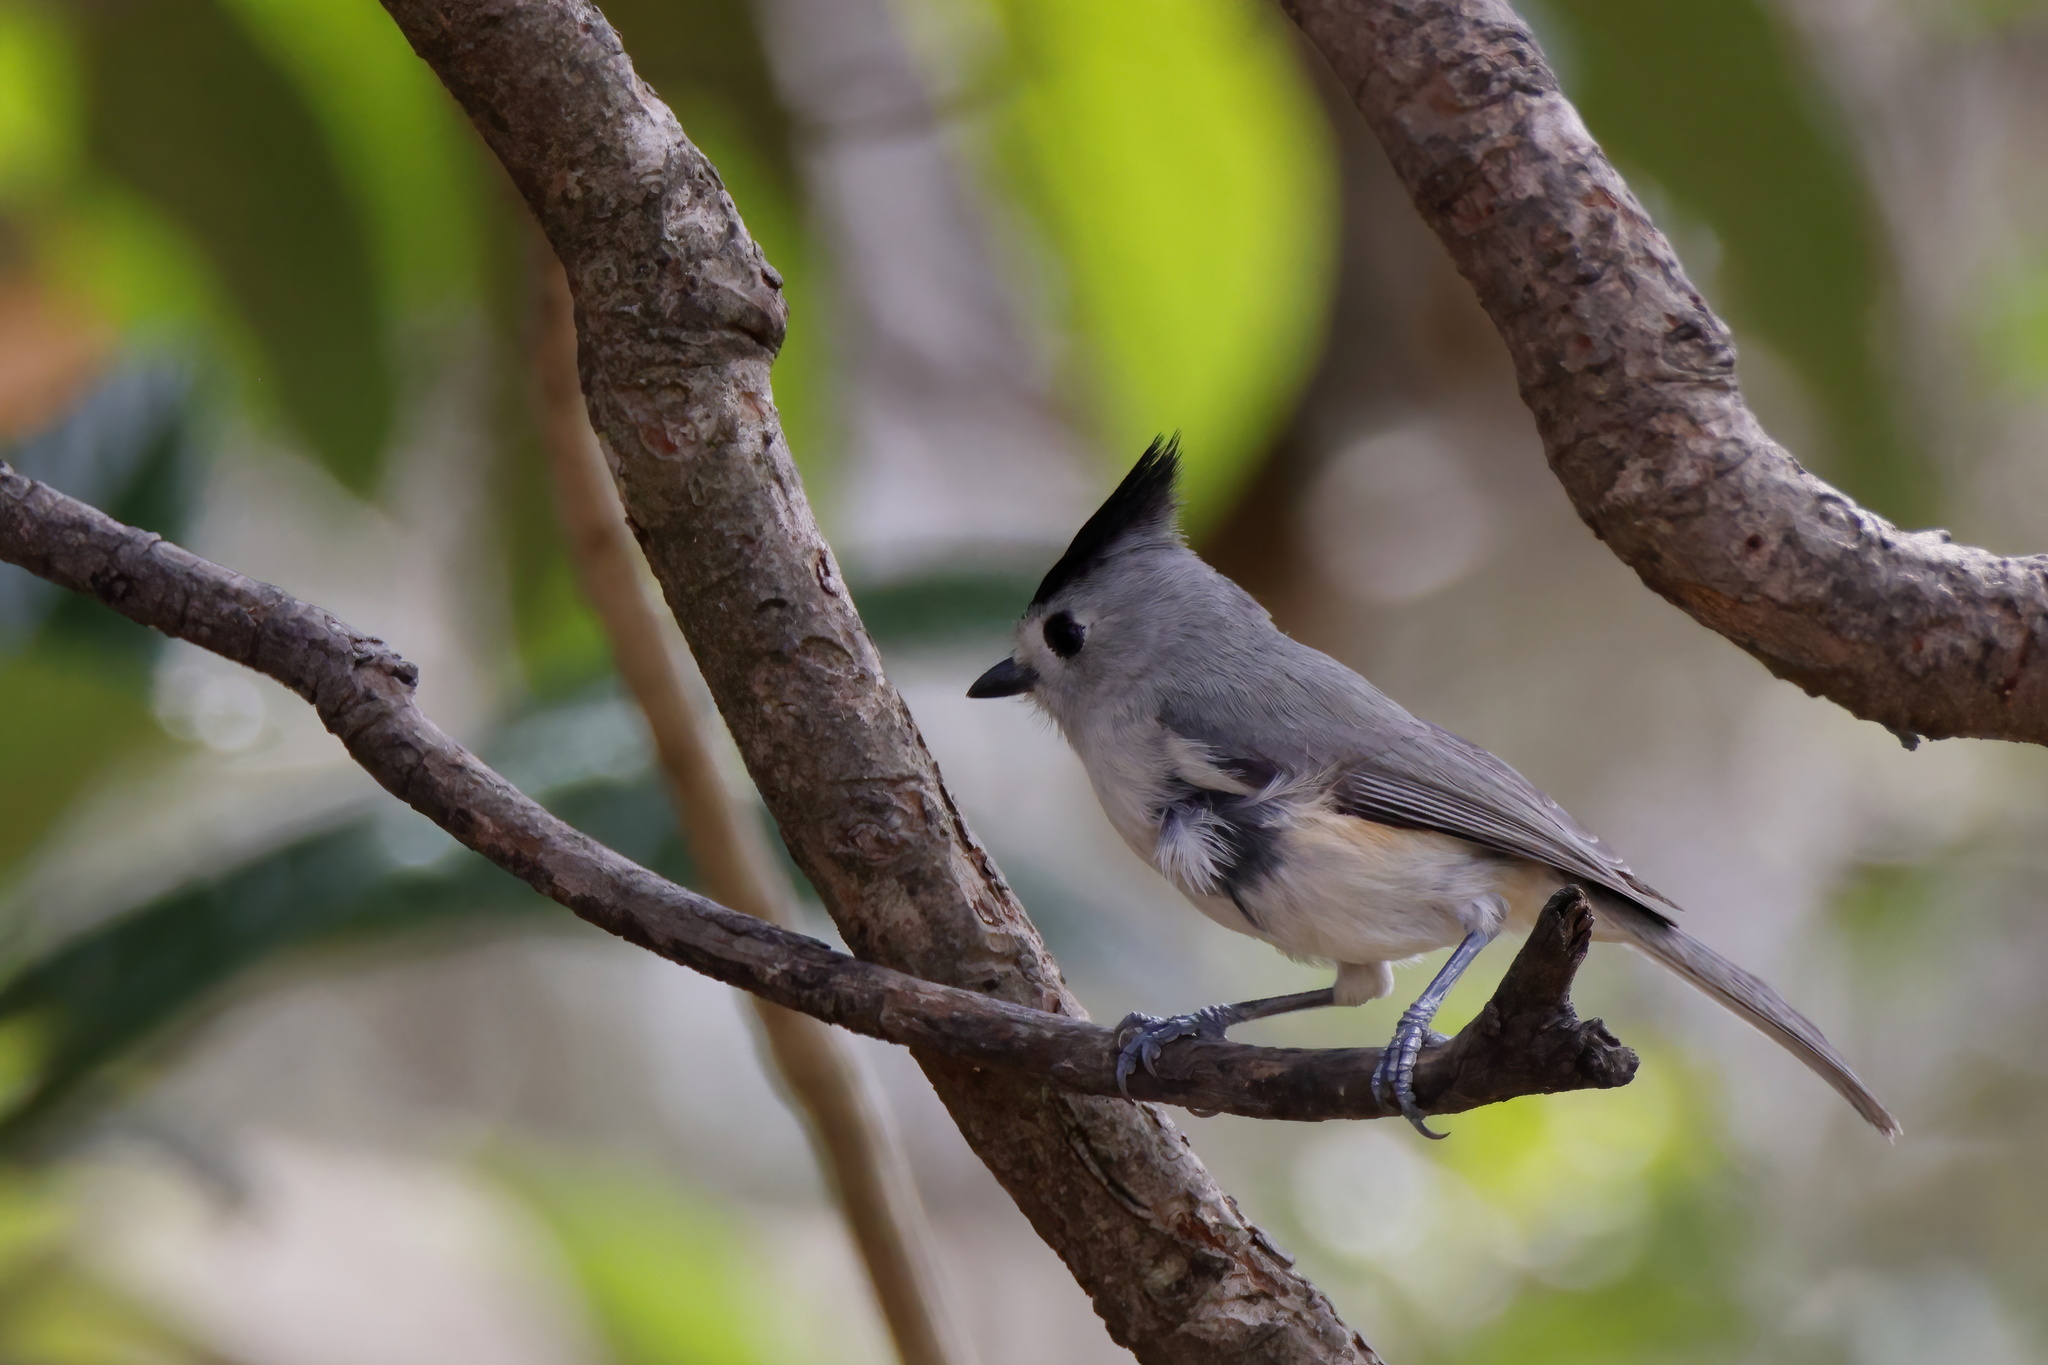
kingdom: Animalia
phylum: Chordata
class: Aves
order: Passeriformes
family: Paridae
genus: Baeolophus
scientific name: Baeolophus atricristatus
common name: Black-crested titmouse
